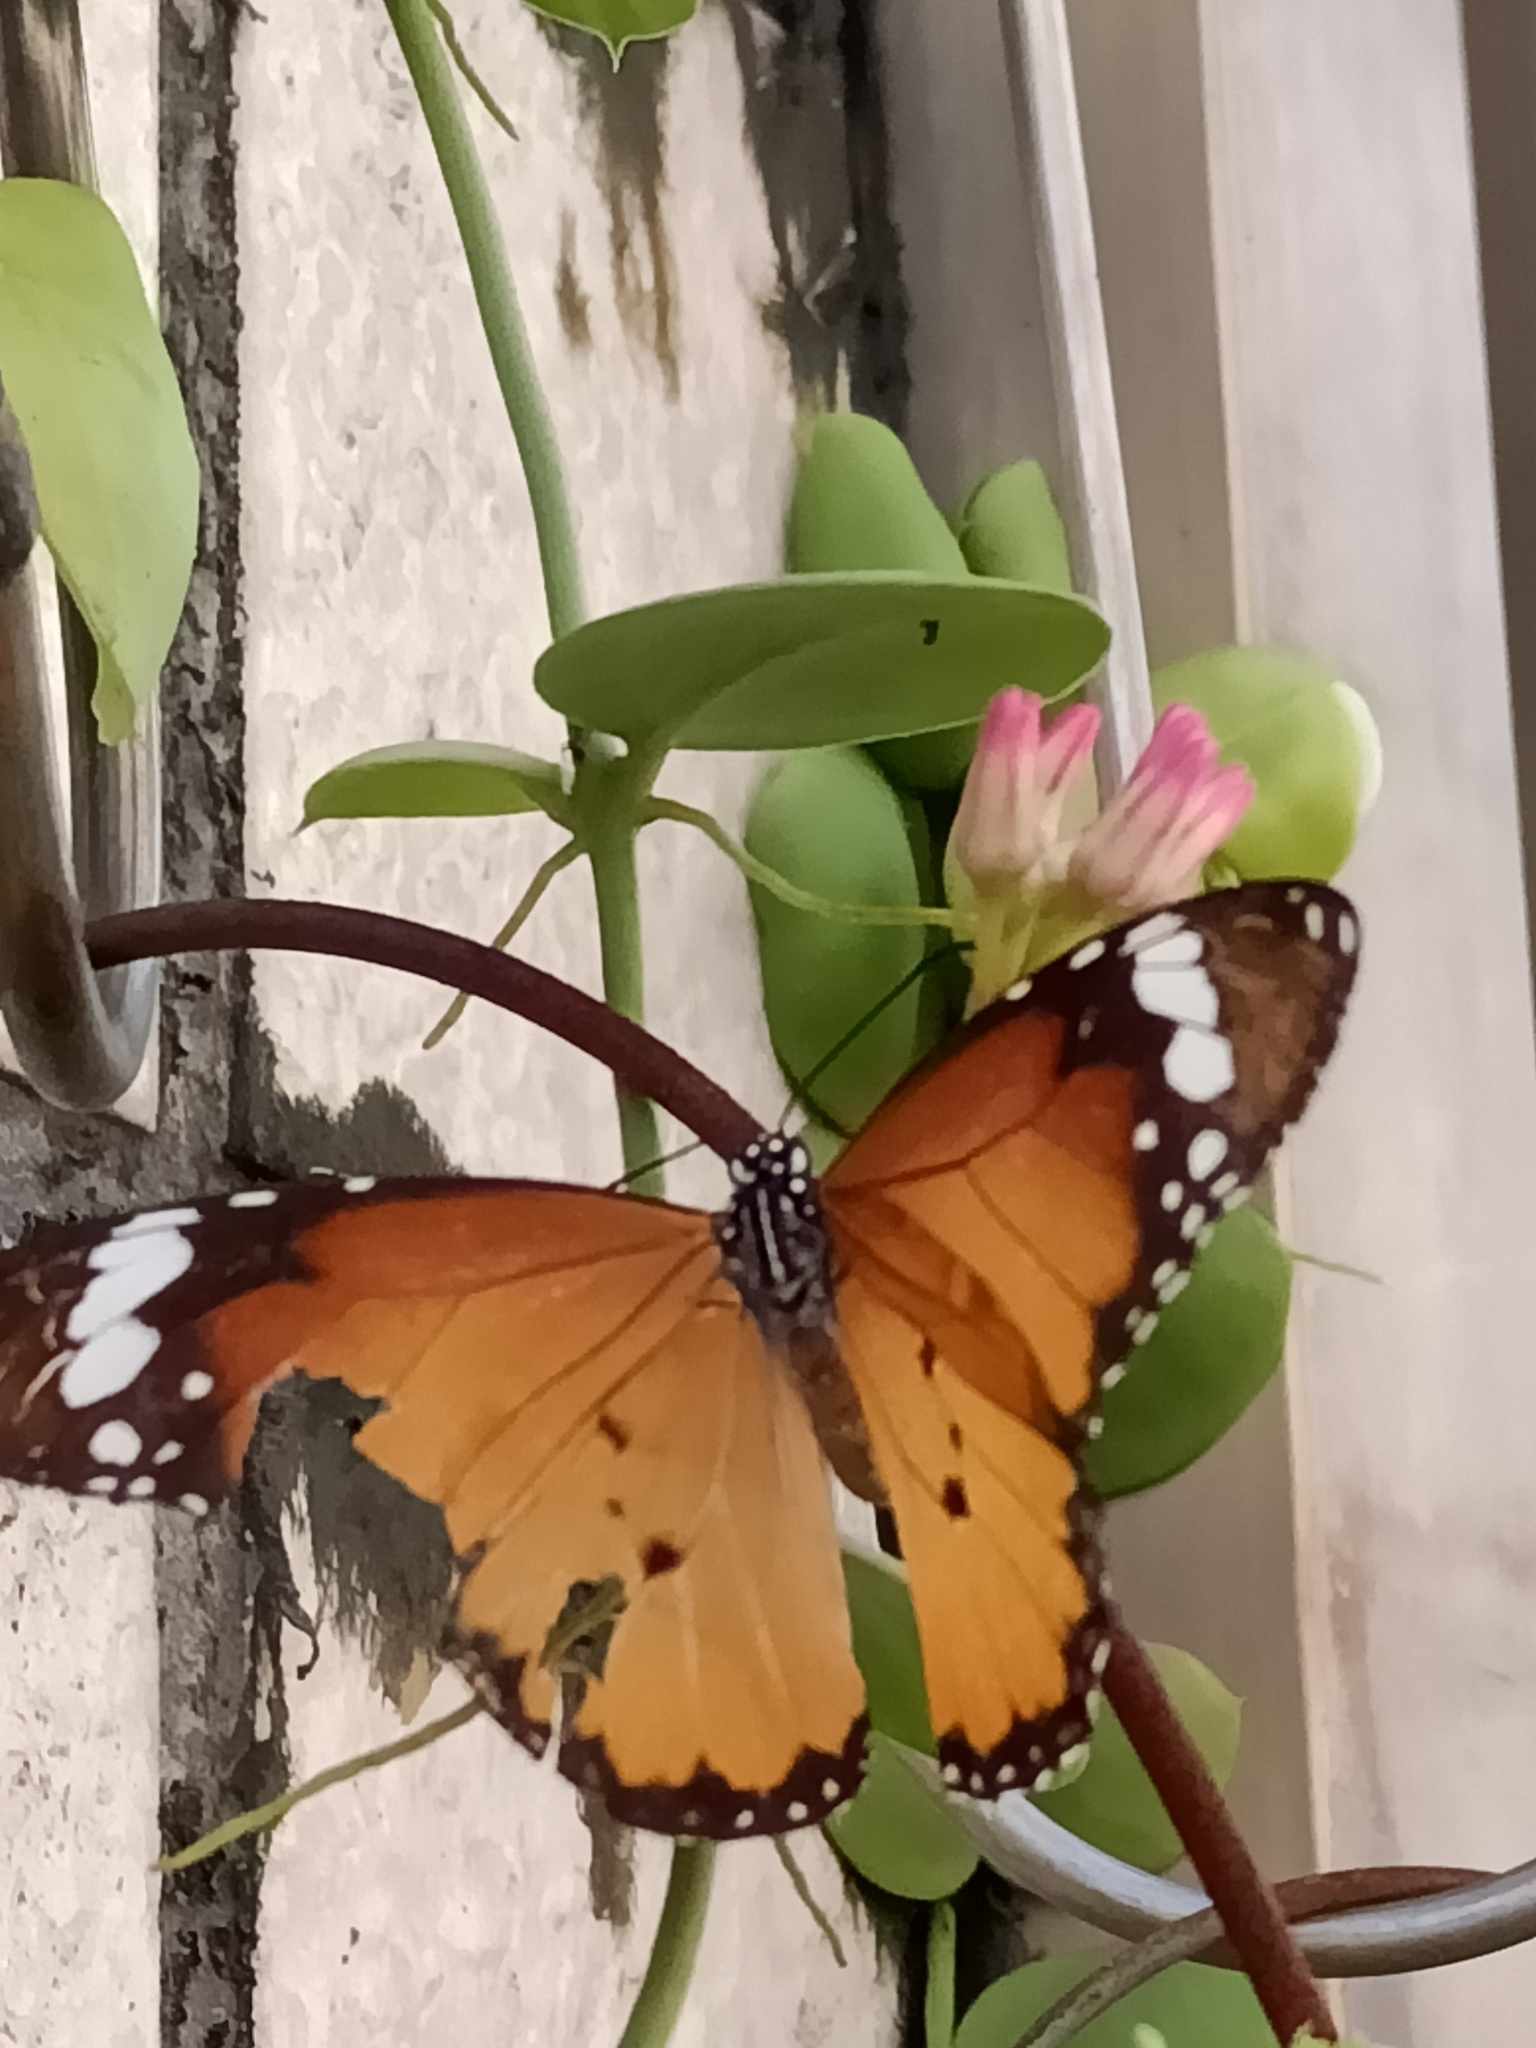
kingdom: Animalia
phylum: Arthropoda
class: Insecta
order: Lepidoptera
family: Nymphalidae
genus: Danaus
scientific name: Danaus chrysippus
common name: Plain tiger
